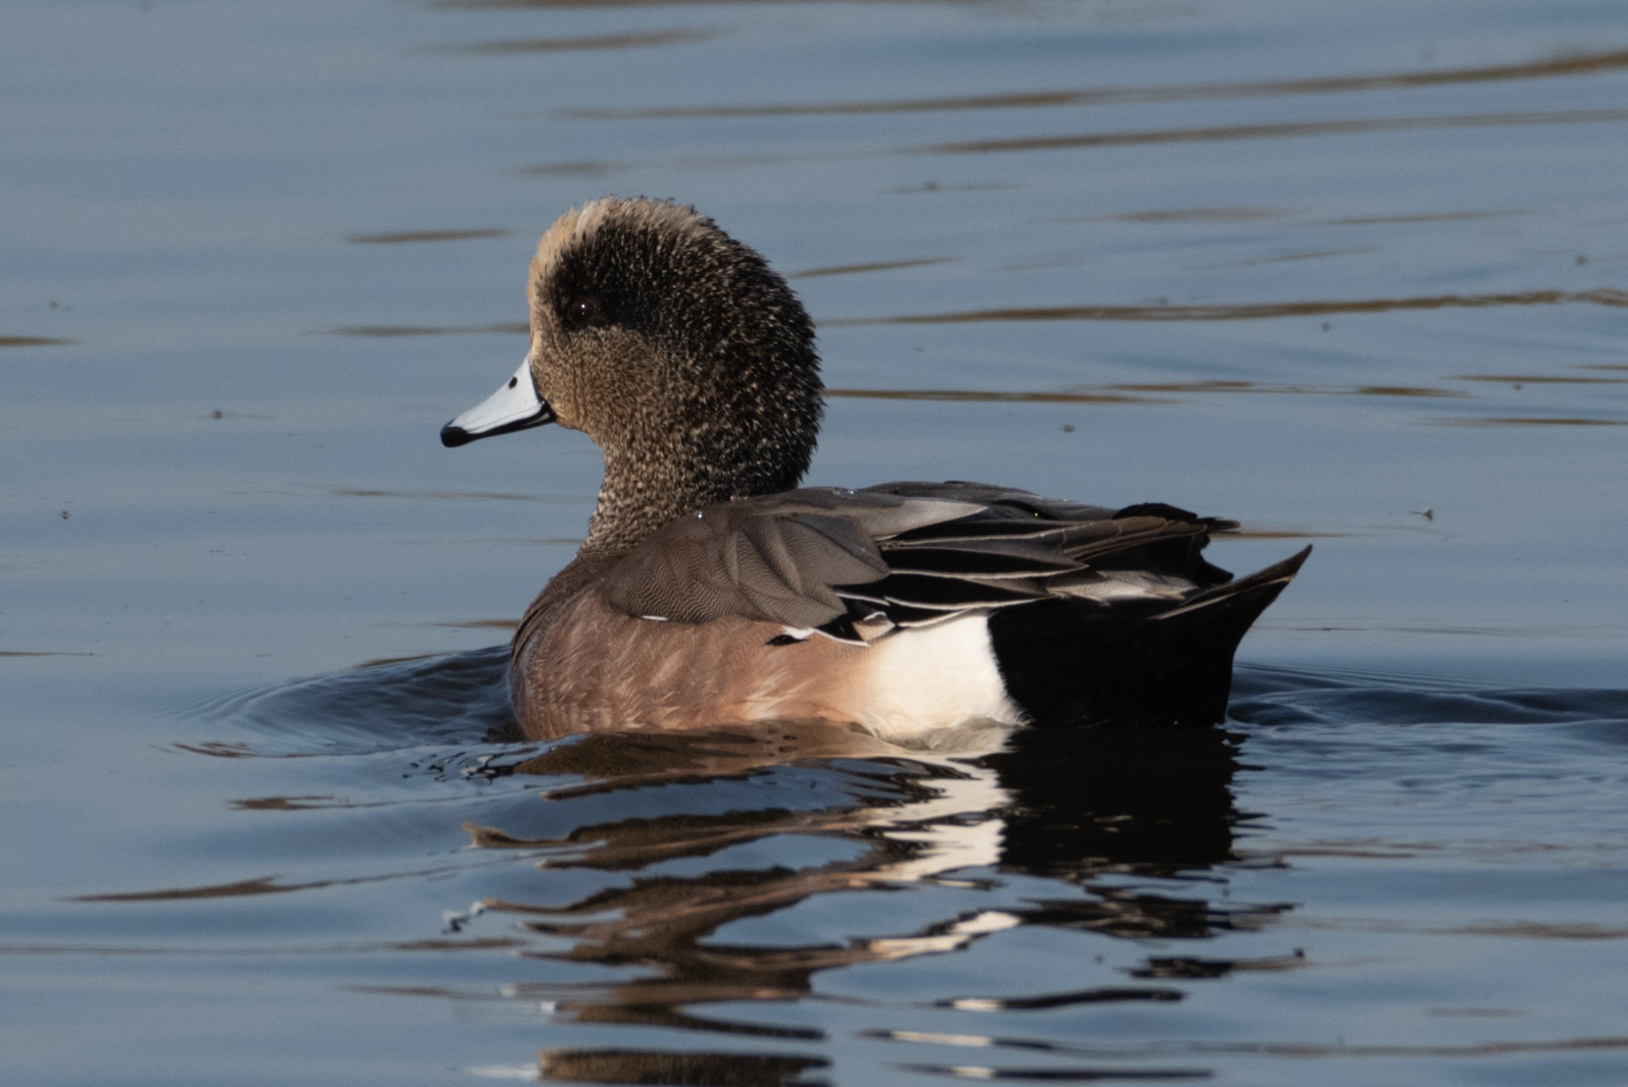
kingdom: Animalia
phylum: Chordata
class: Aves
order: Anseriformes
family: Anatidae
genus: Mareca
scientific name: Mareca americana
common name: American wigeon
